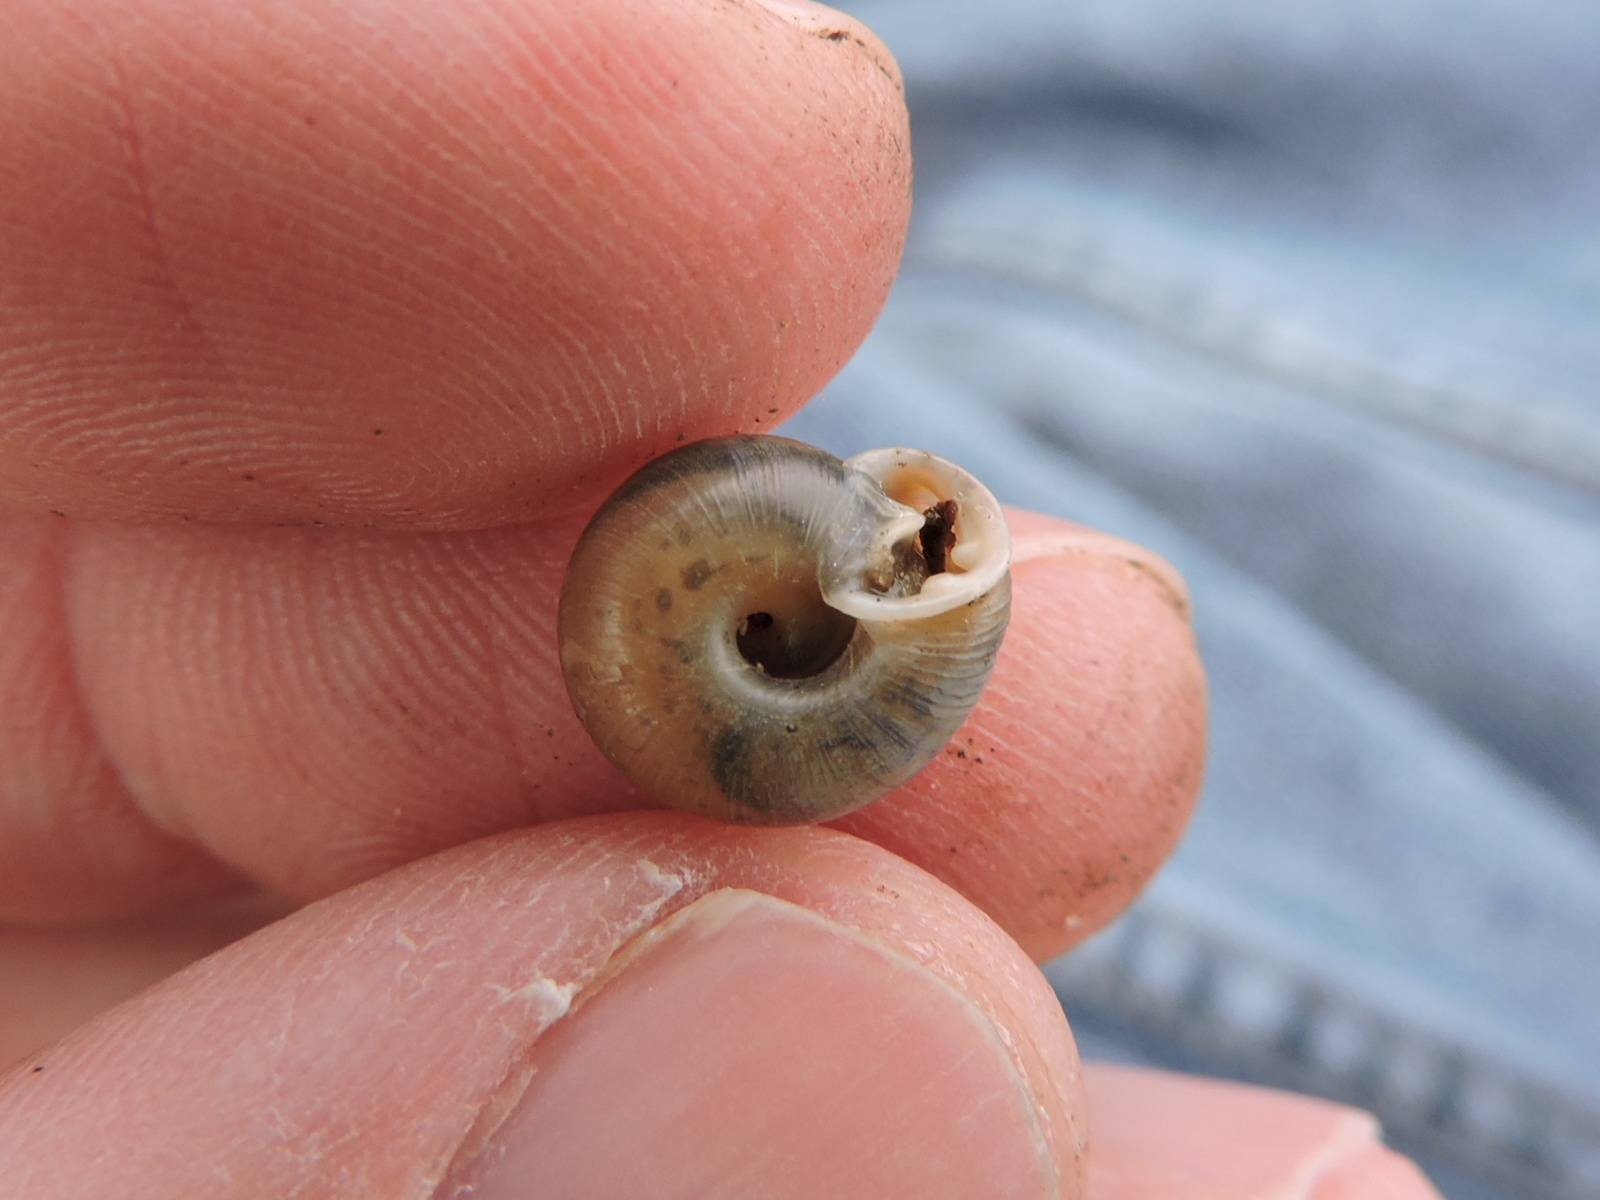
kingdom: Animalia
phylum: Mollusca
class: Gastropoda
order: Stylommatophora
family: Polygyridae
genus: Linisa
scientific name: Linisa texasiana
